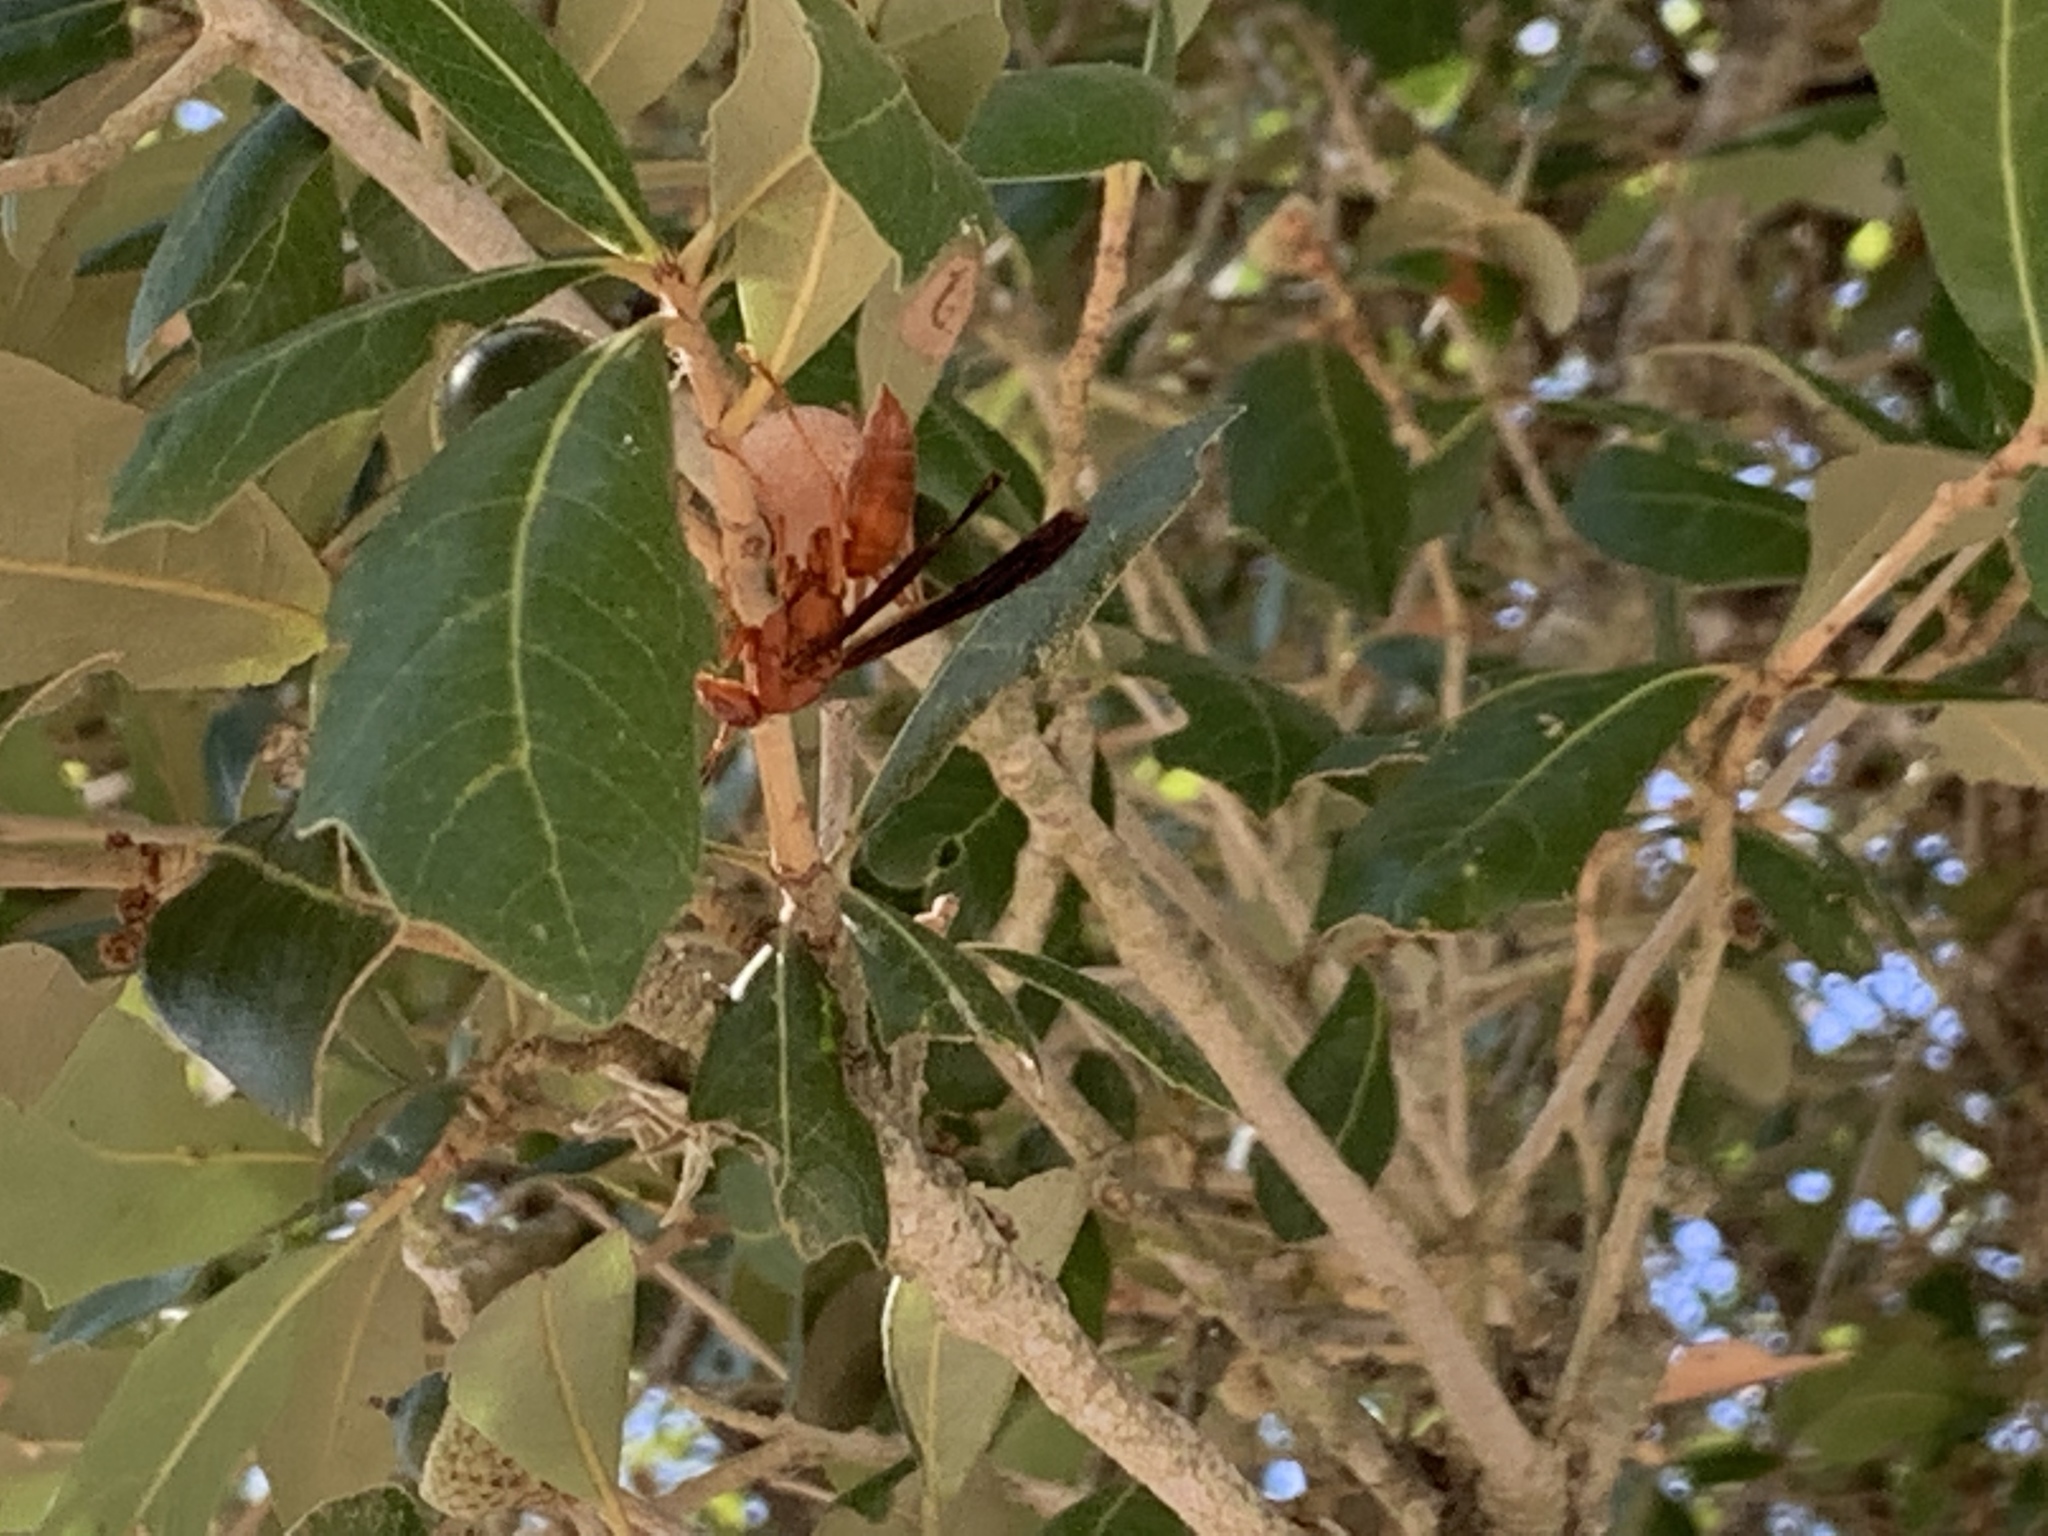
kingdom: Animalia
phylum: Arthropoda
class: Insecta
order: Hymenoptera
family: Vespidae
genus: Fuscopolistes
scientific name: Fuscopolistes
